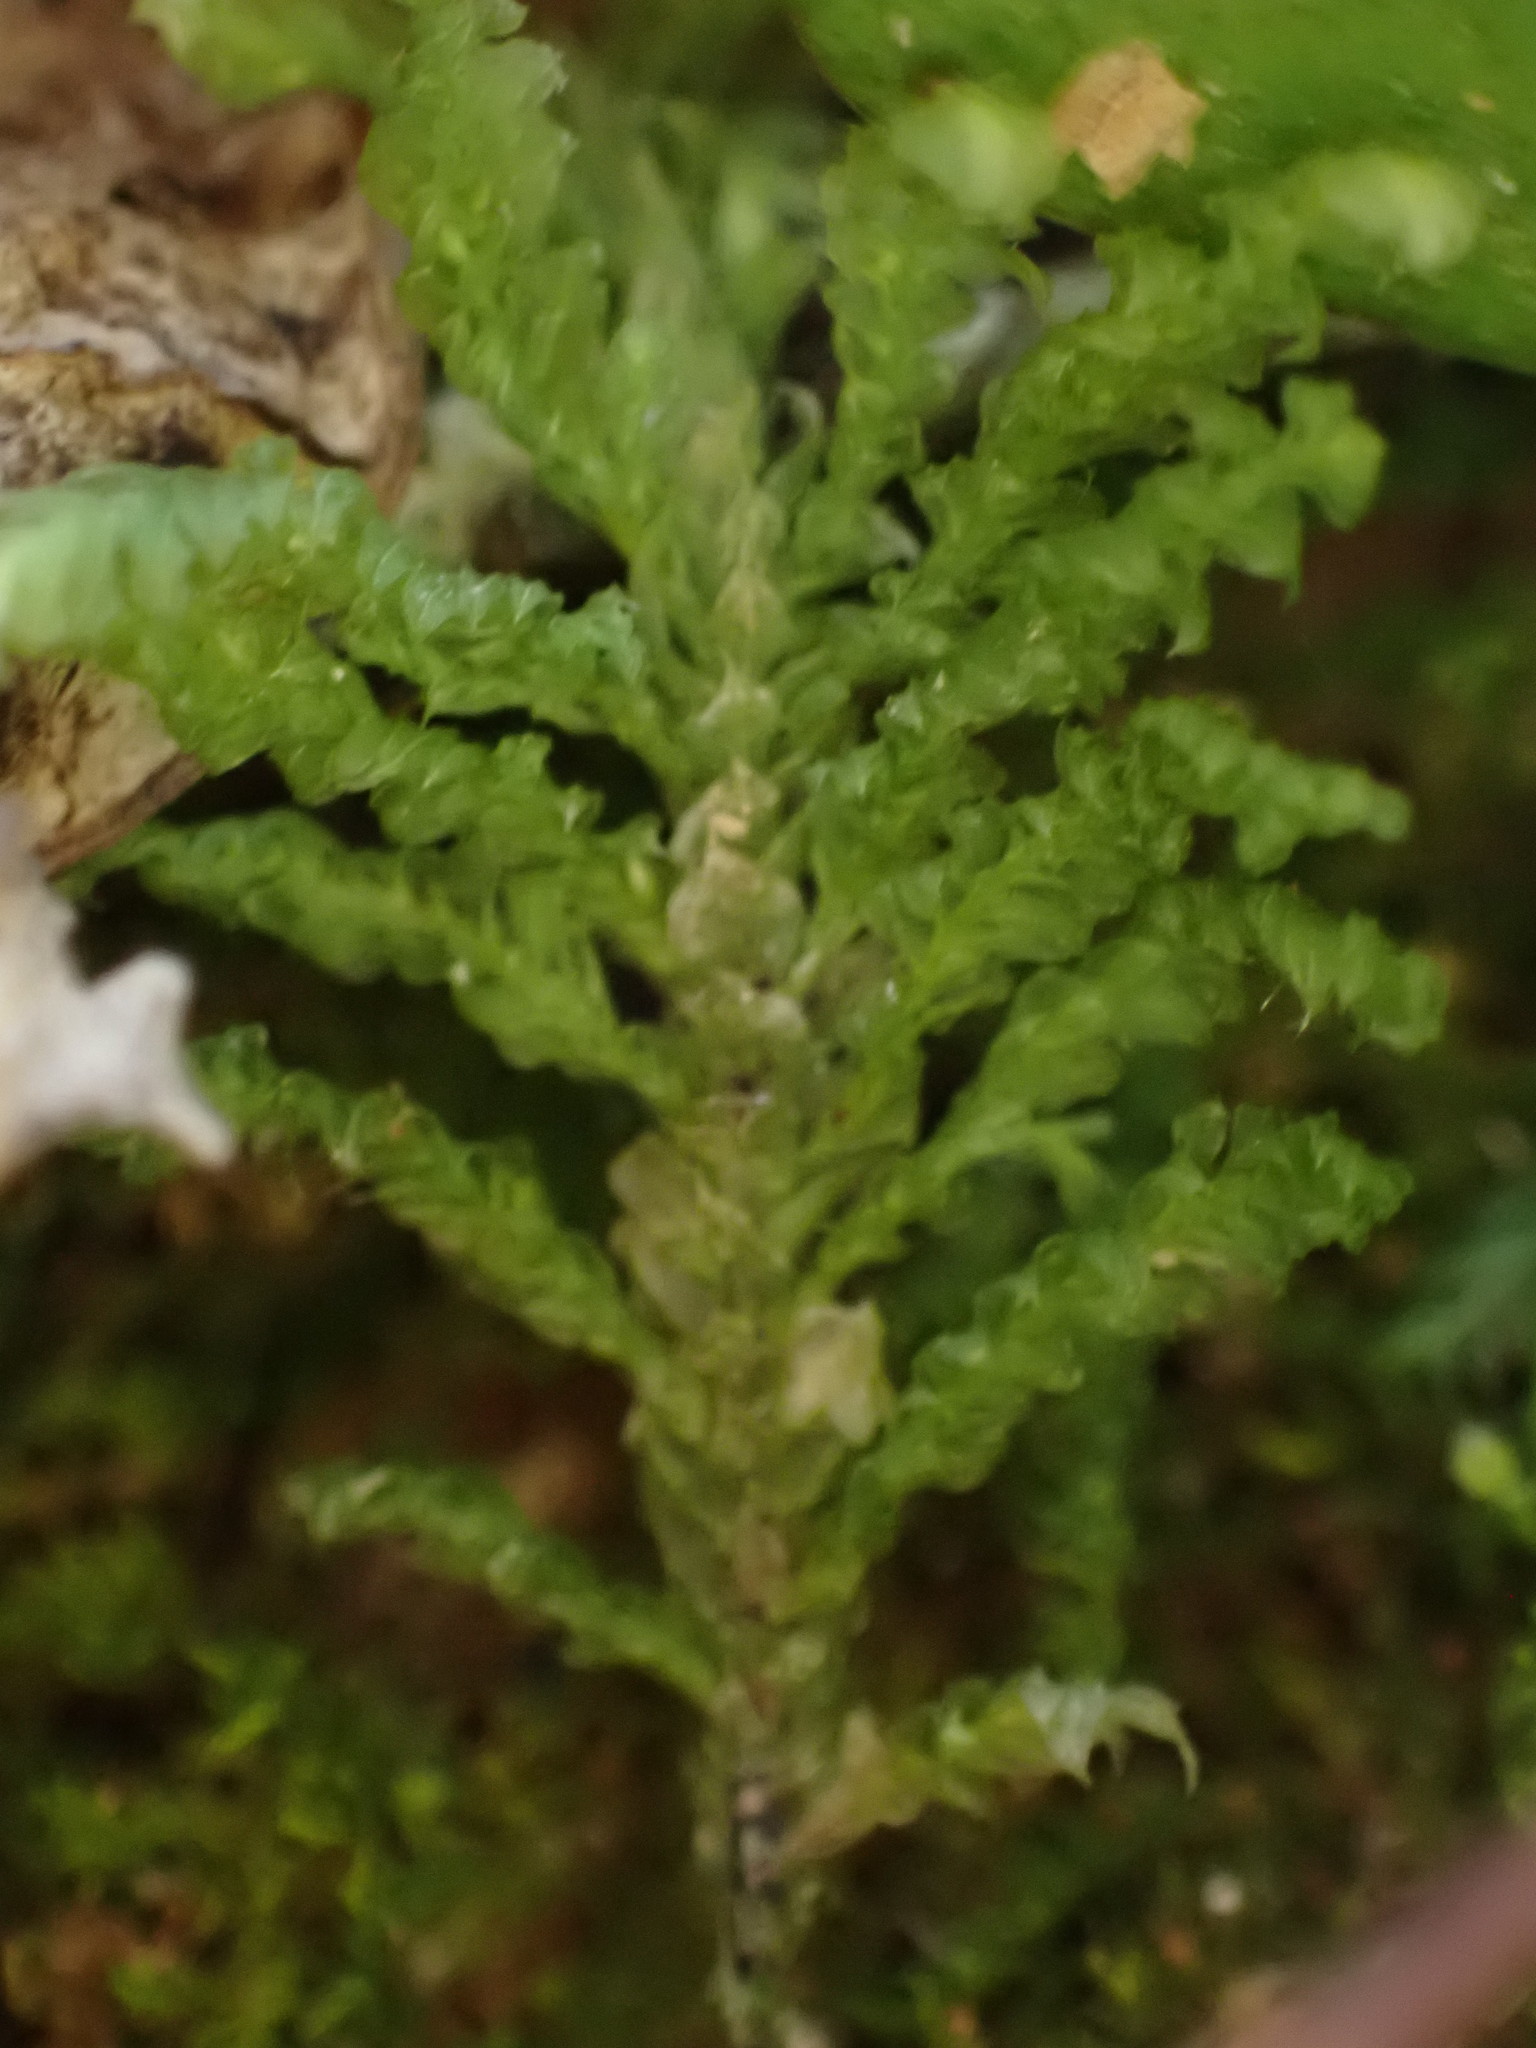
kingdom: Plantae
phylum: Bryophyta
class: Bryopsida
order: Hypopterygiales
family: Hypopterygiaceae
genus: Lopidium
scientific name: Lopidium concinnum
